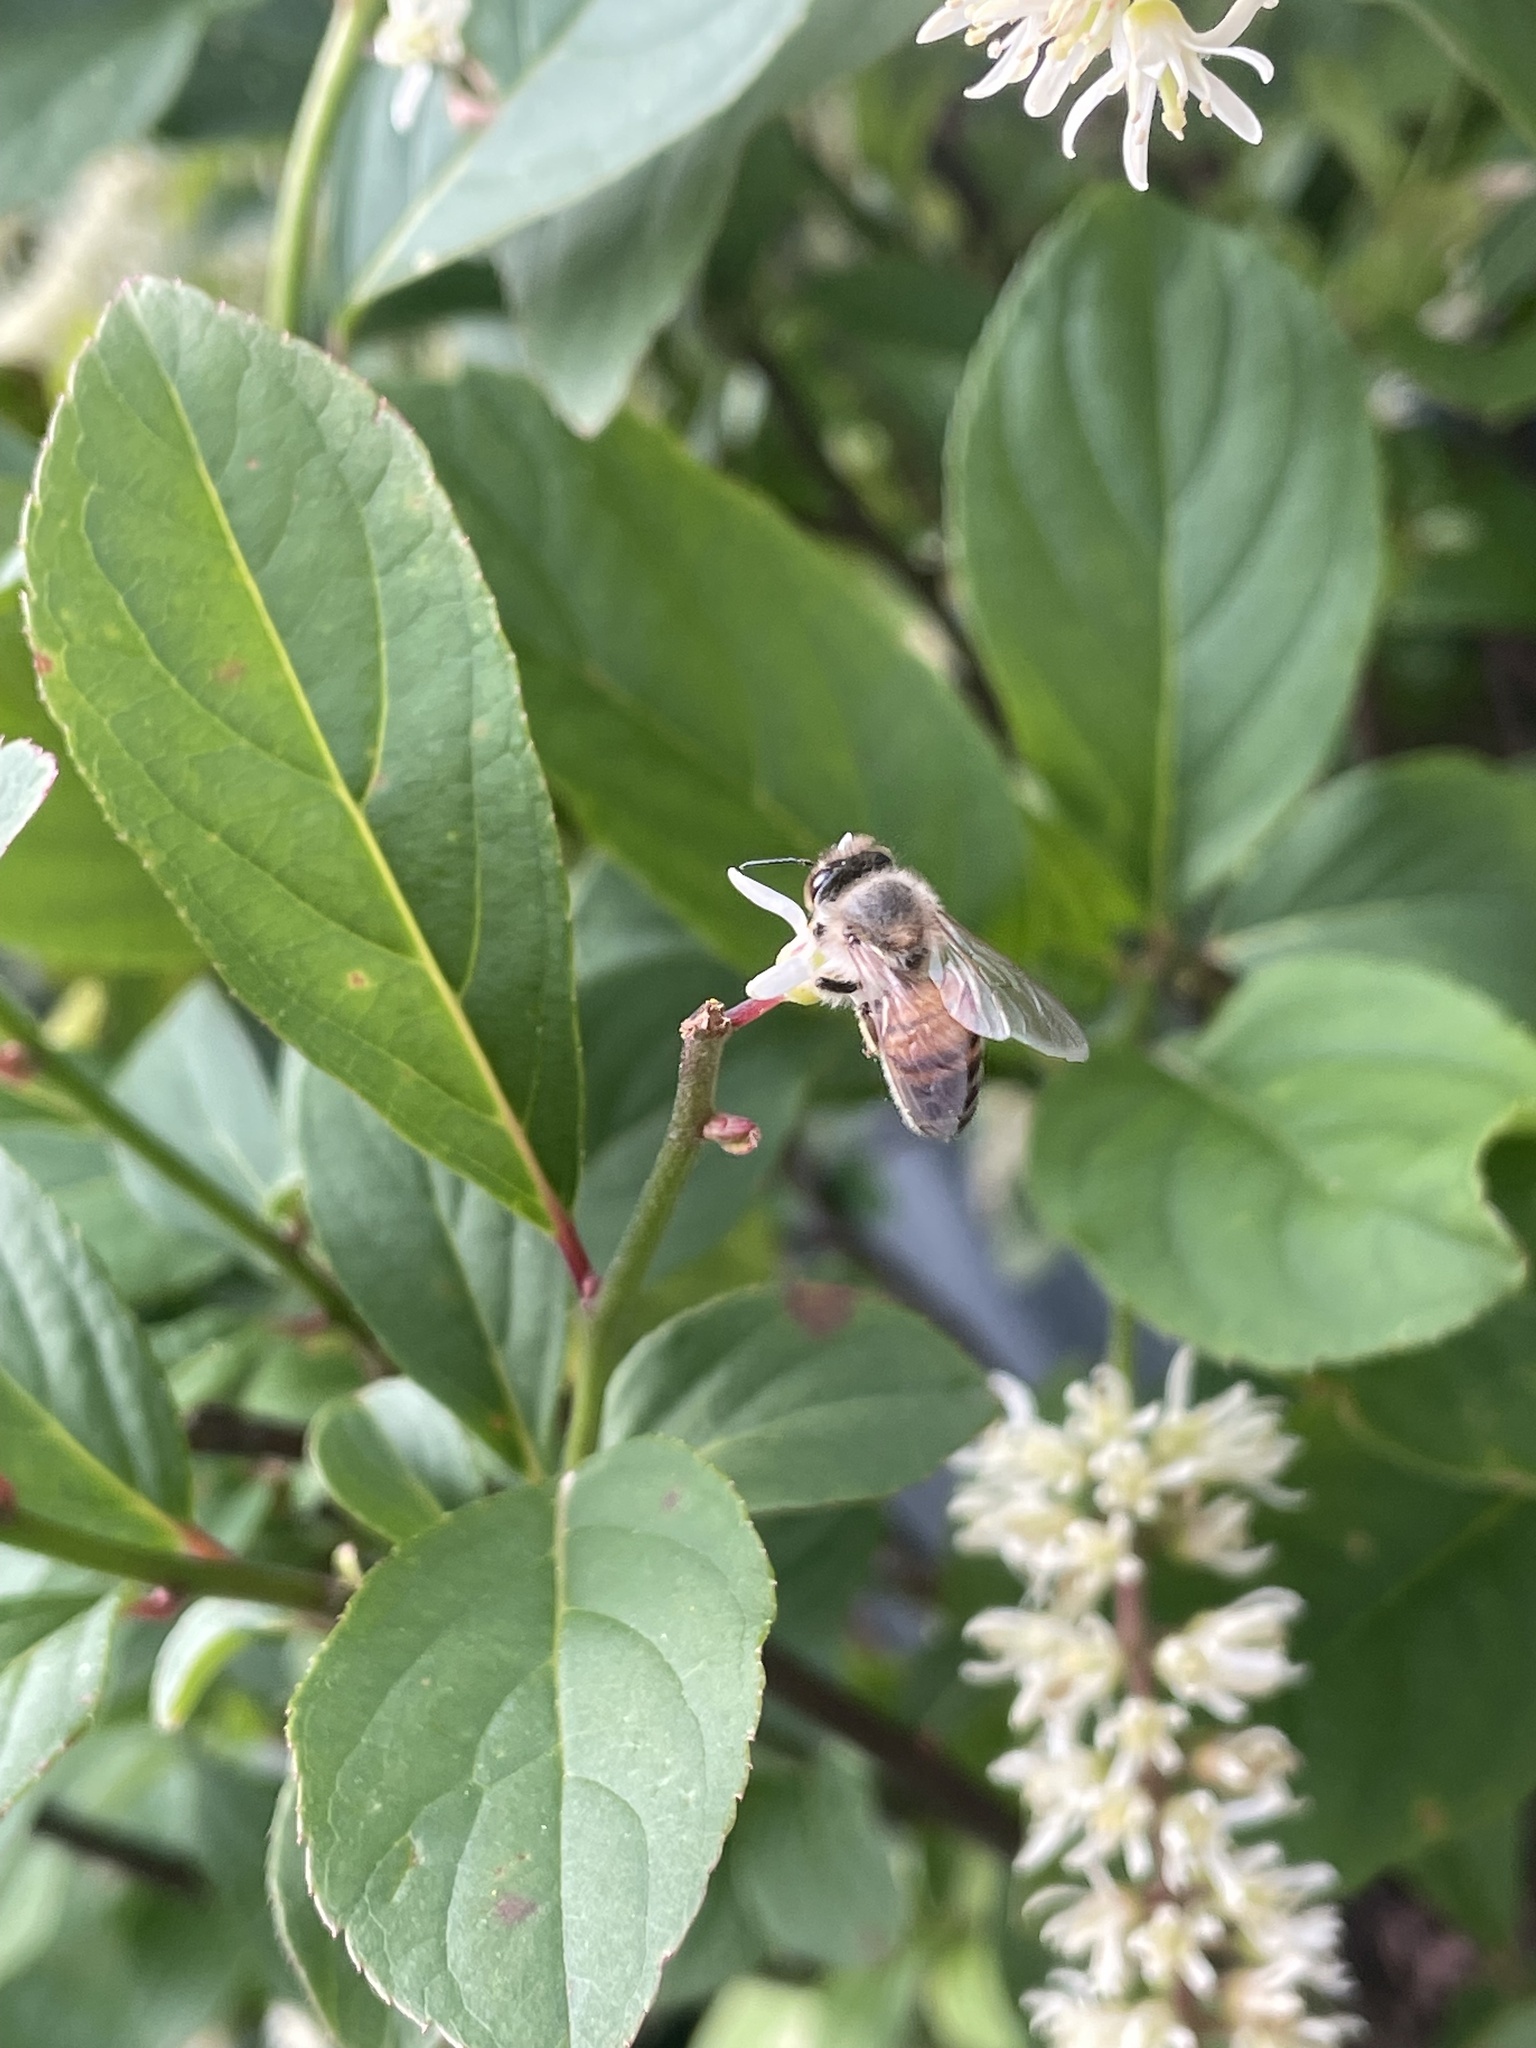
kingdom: Animalia
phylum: Arthropoda
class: Insecta
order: Hymenoptera
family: Apidae
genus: Apis
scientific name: Apis mellifera
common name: Honey bee
